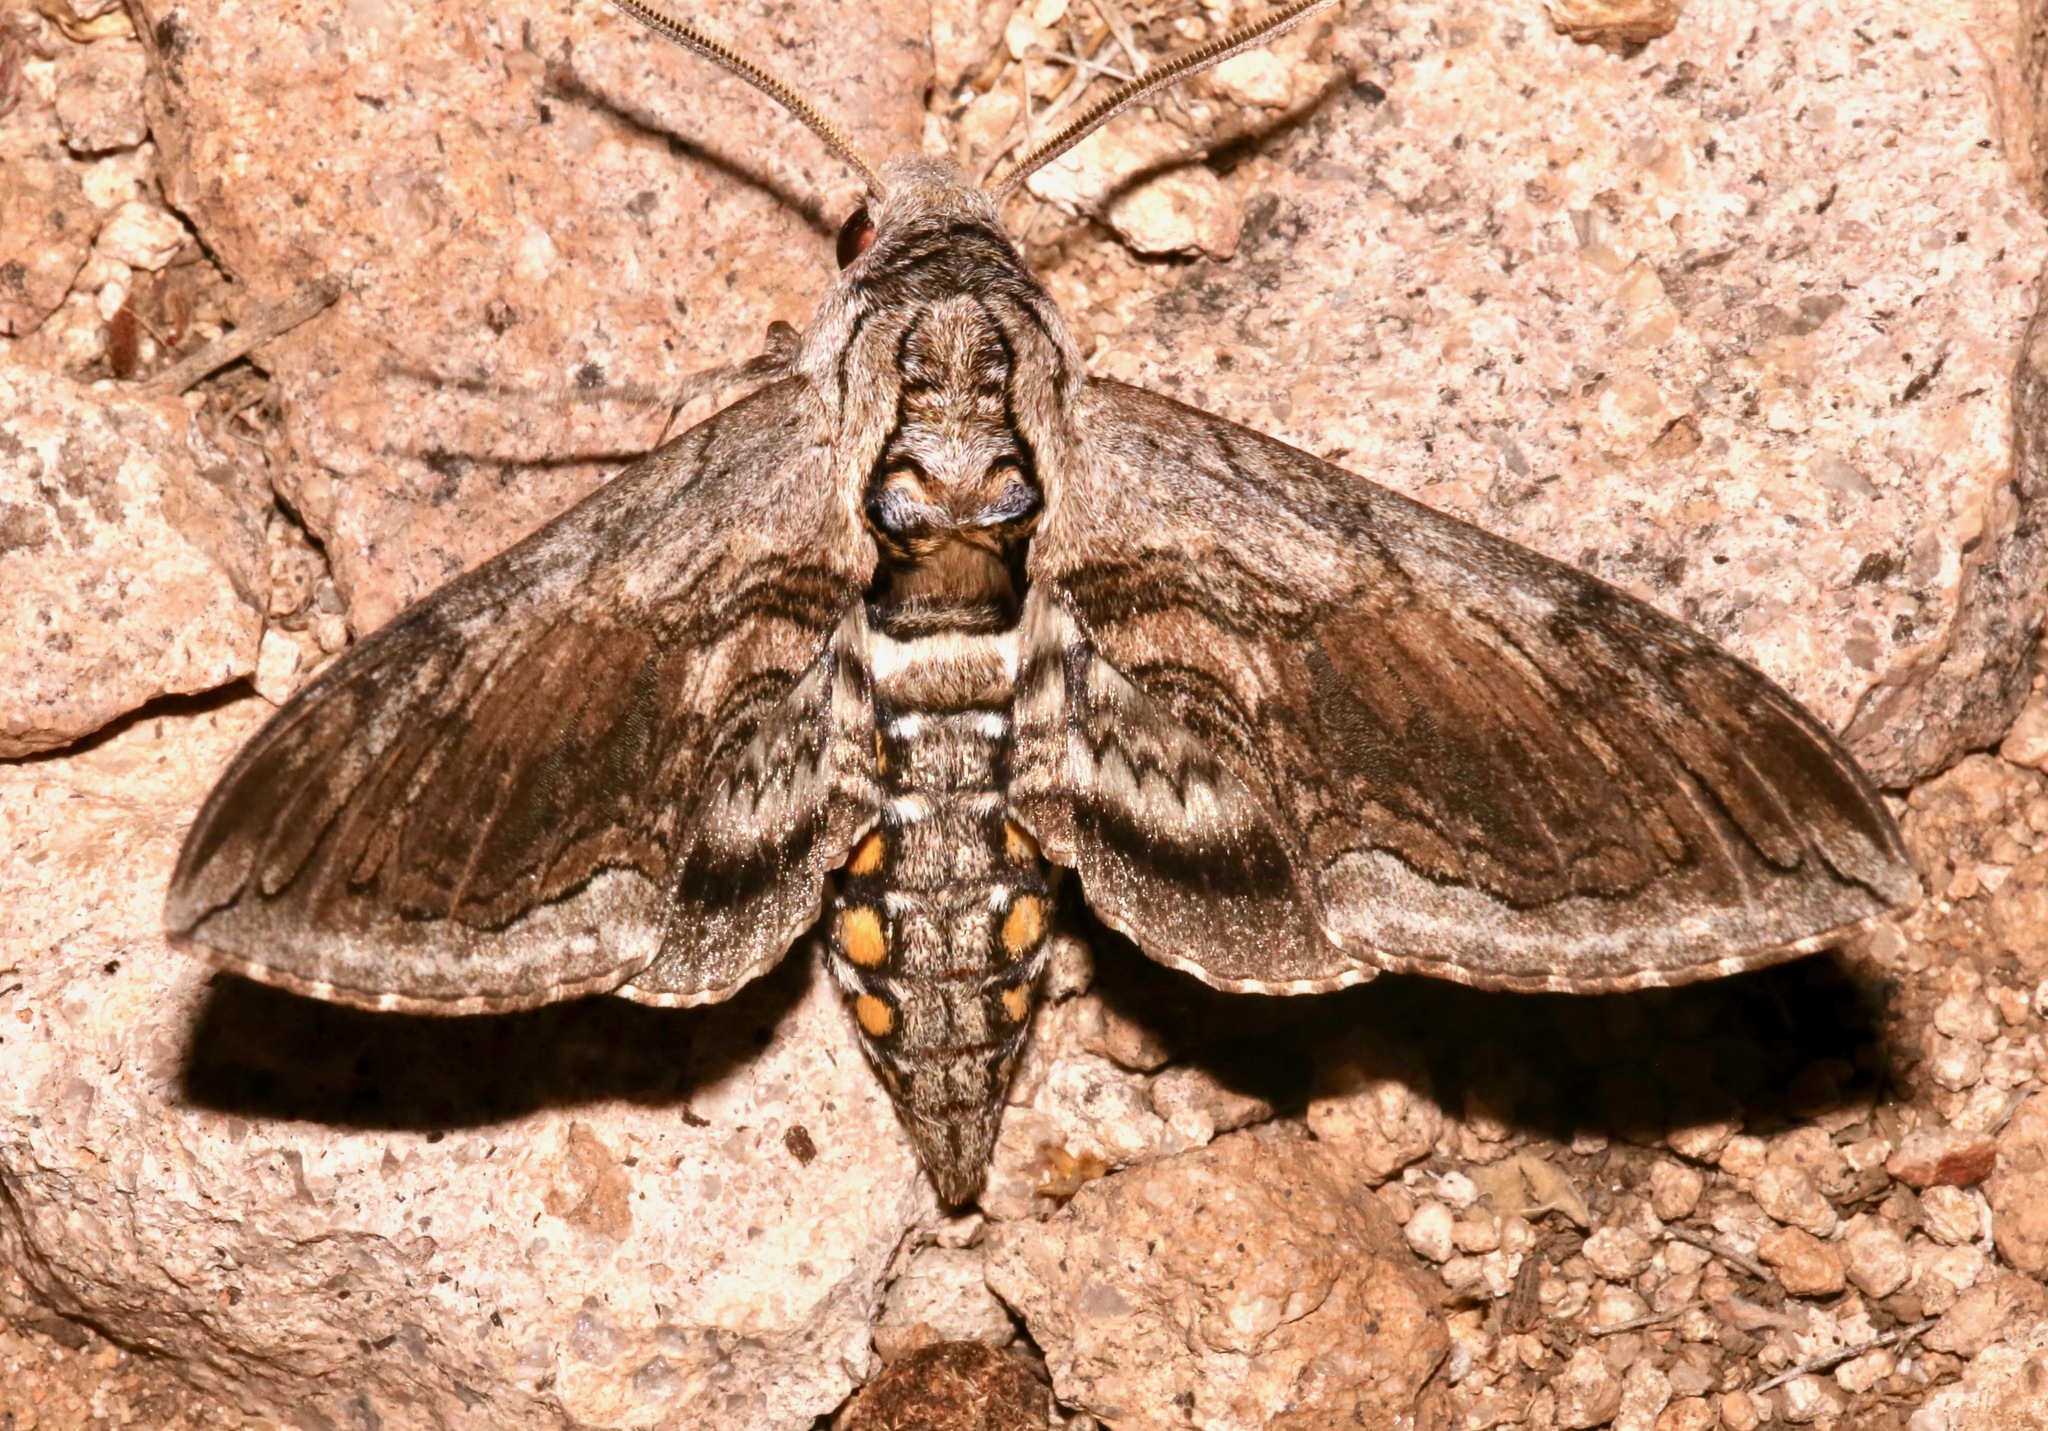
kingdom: Animalia
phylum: Arthropoda
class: Insecta
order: Lepidoptera
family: Sphingidae
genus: Manduca
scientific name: Manduca quinquemaculatus
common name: Five-spotted hawk-moth
